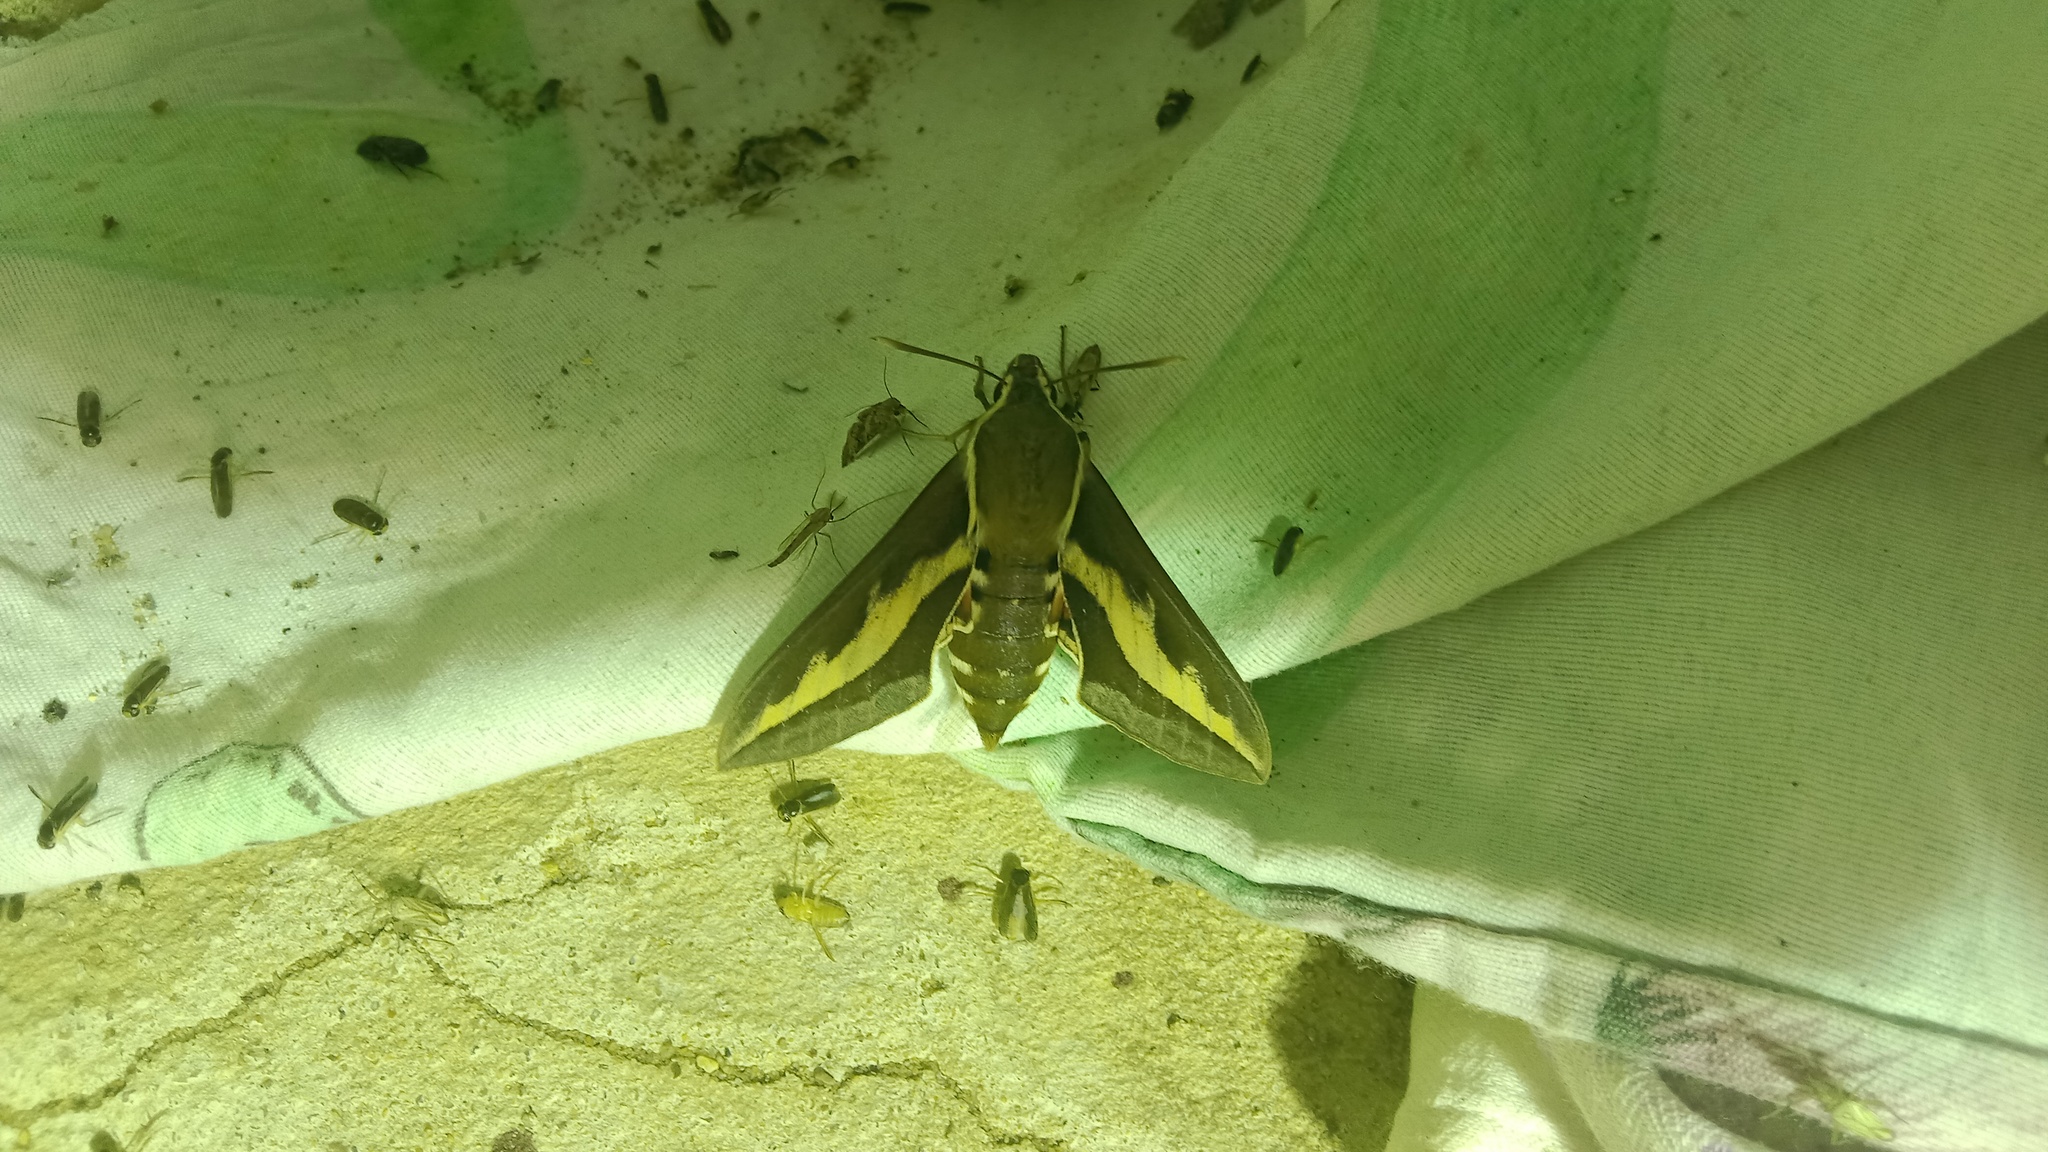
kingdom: Animalia
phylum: Arthropoda
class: Insecta
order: Lepidoptera
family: Sphingidae
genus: Hyles
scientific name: Hyles gallii
